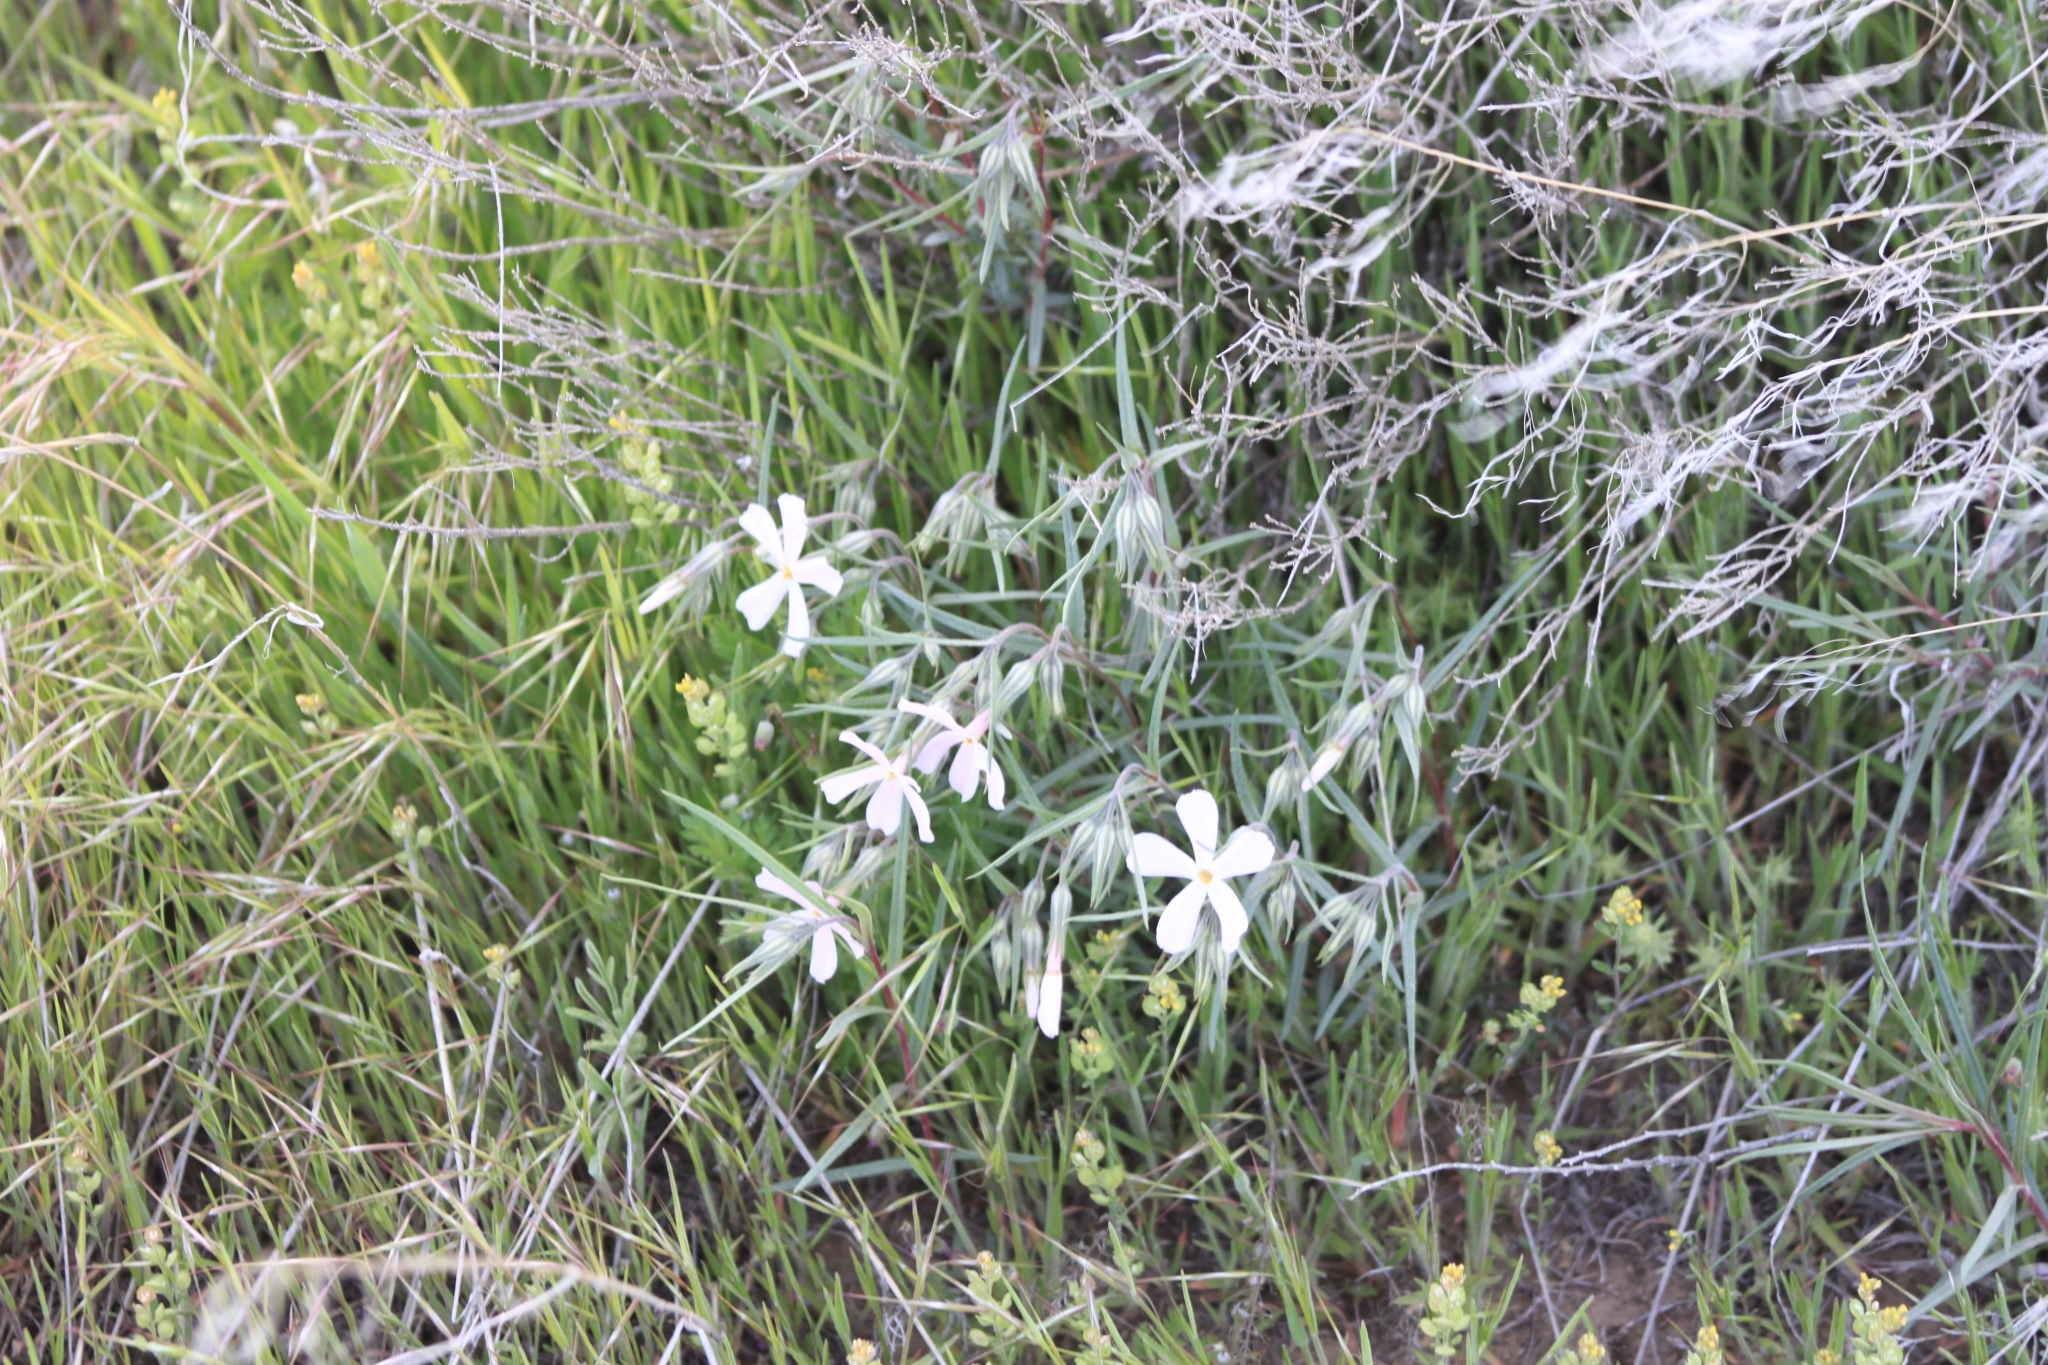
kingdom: Plantae
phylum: Tracheophyta
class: Magnoliopsida
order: Ericales
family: Polemoniaceae
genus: Phlox
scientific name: Phlox longifolia
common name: Longleaf phlox
